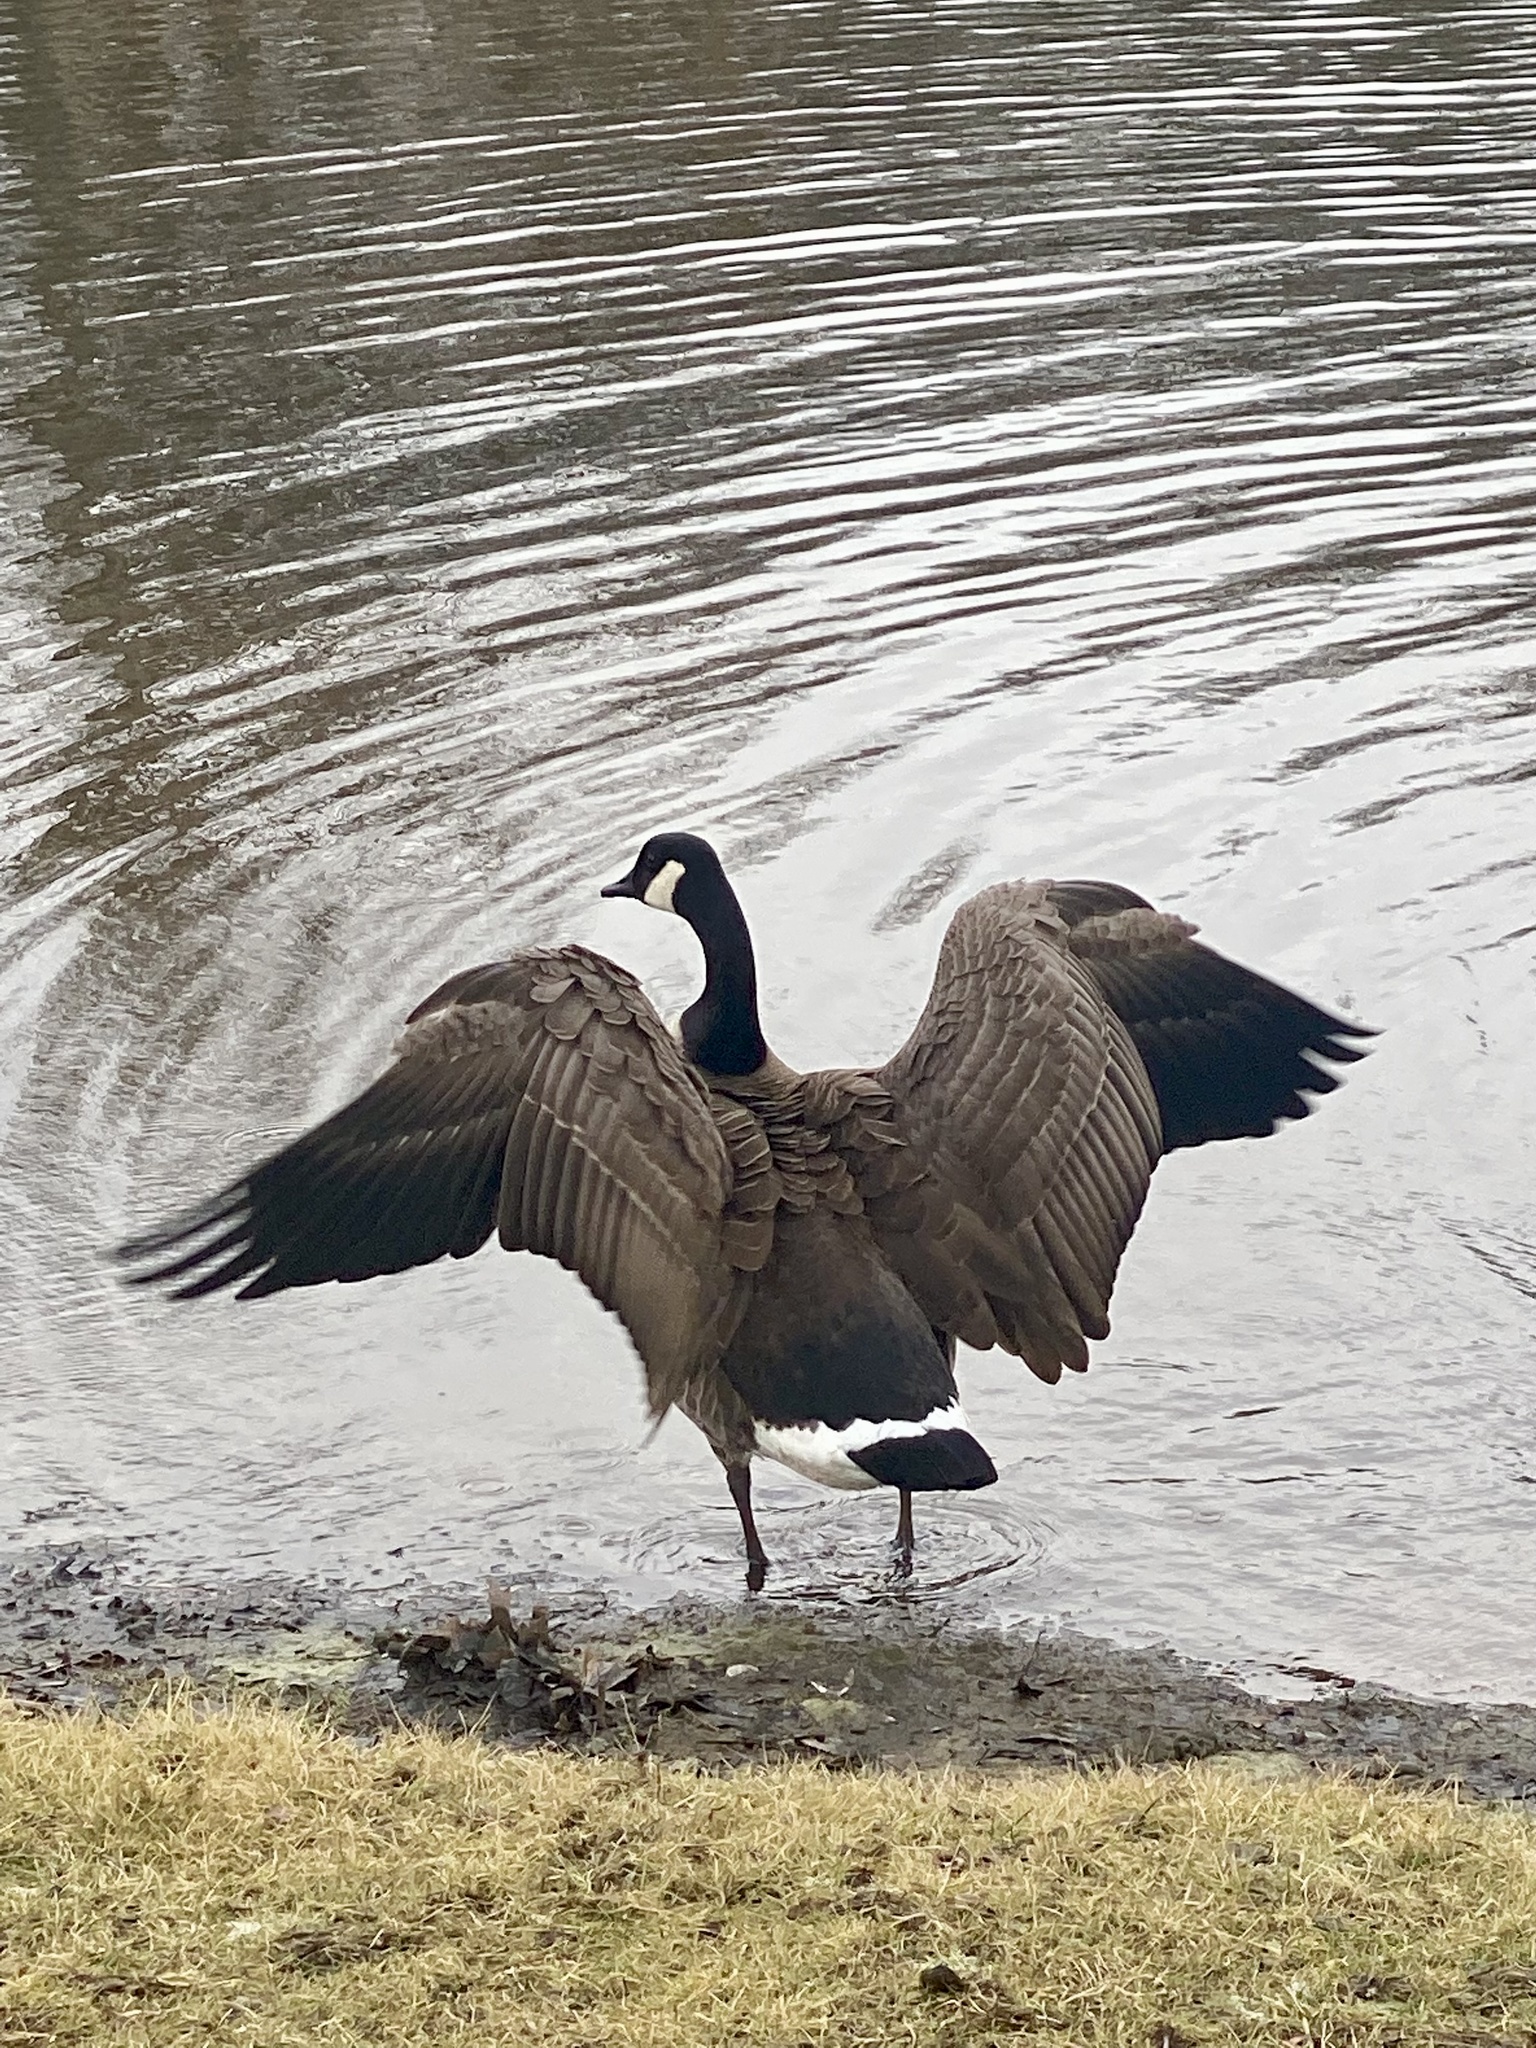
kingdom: Animalia
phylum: Chordata
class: Aves
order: Anseriformes
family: Anatidae
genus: Branta
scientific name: Branta canadensis
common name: Canada goose
